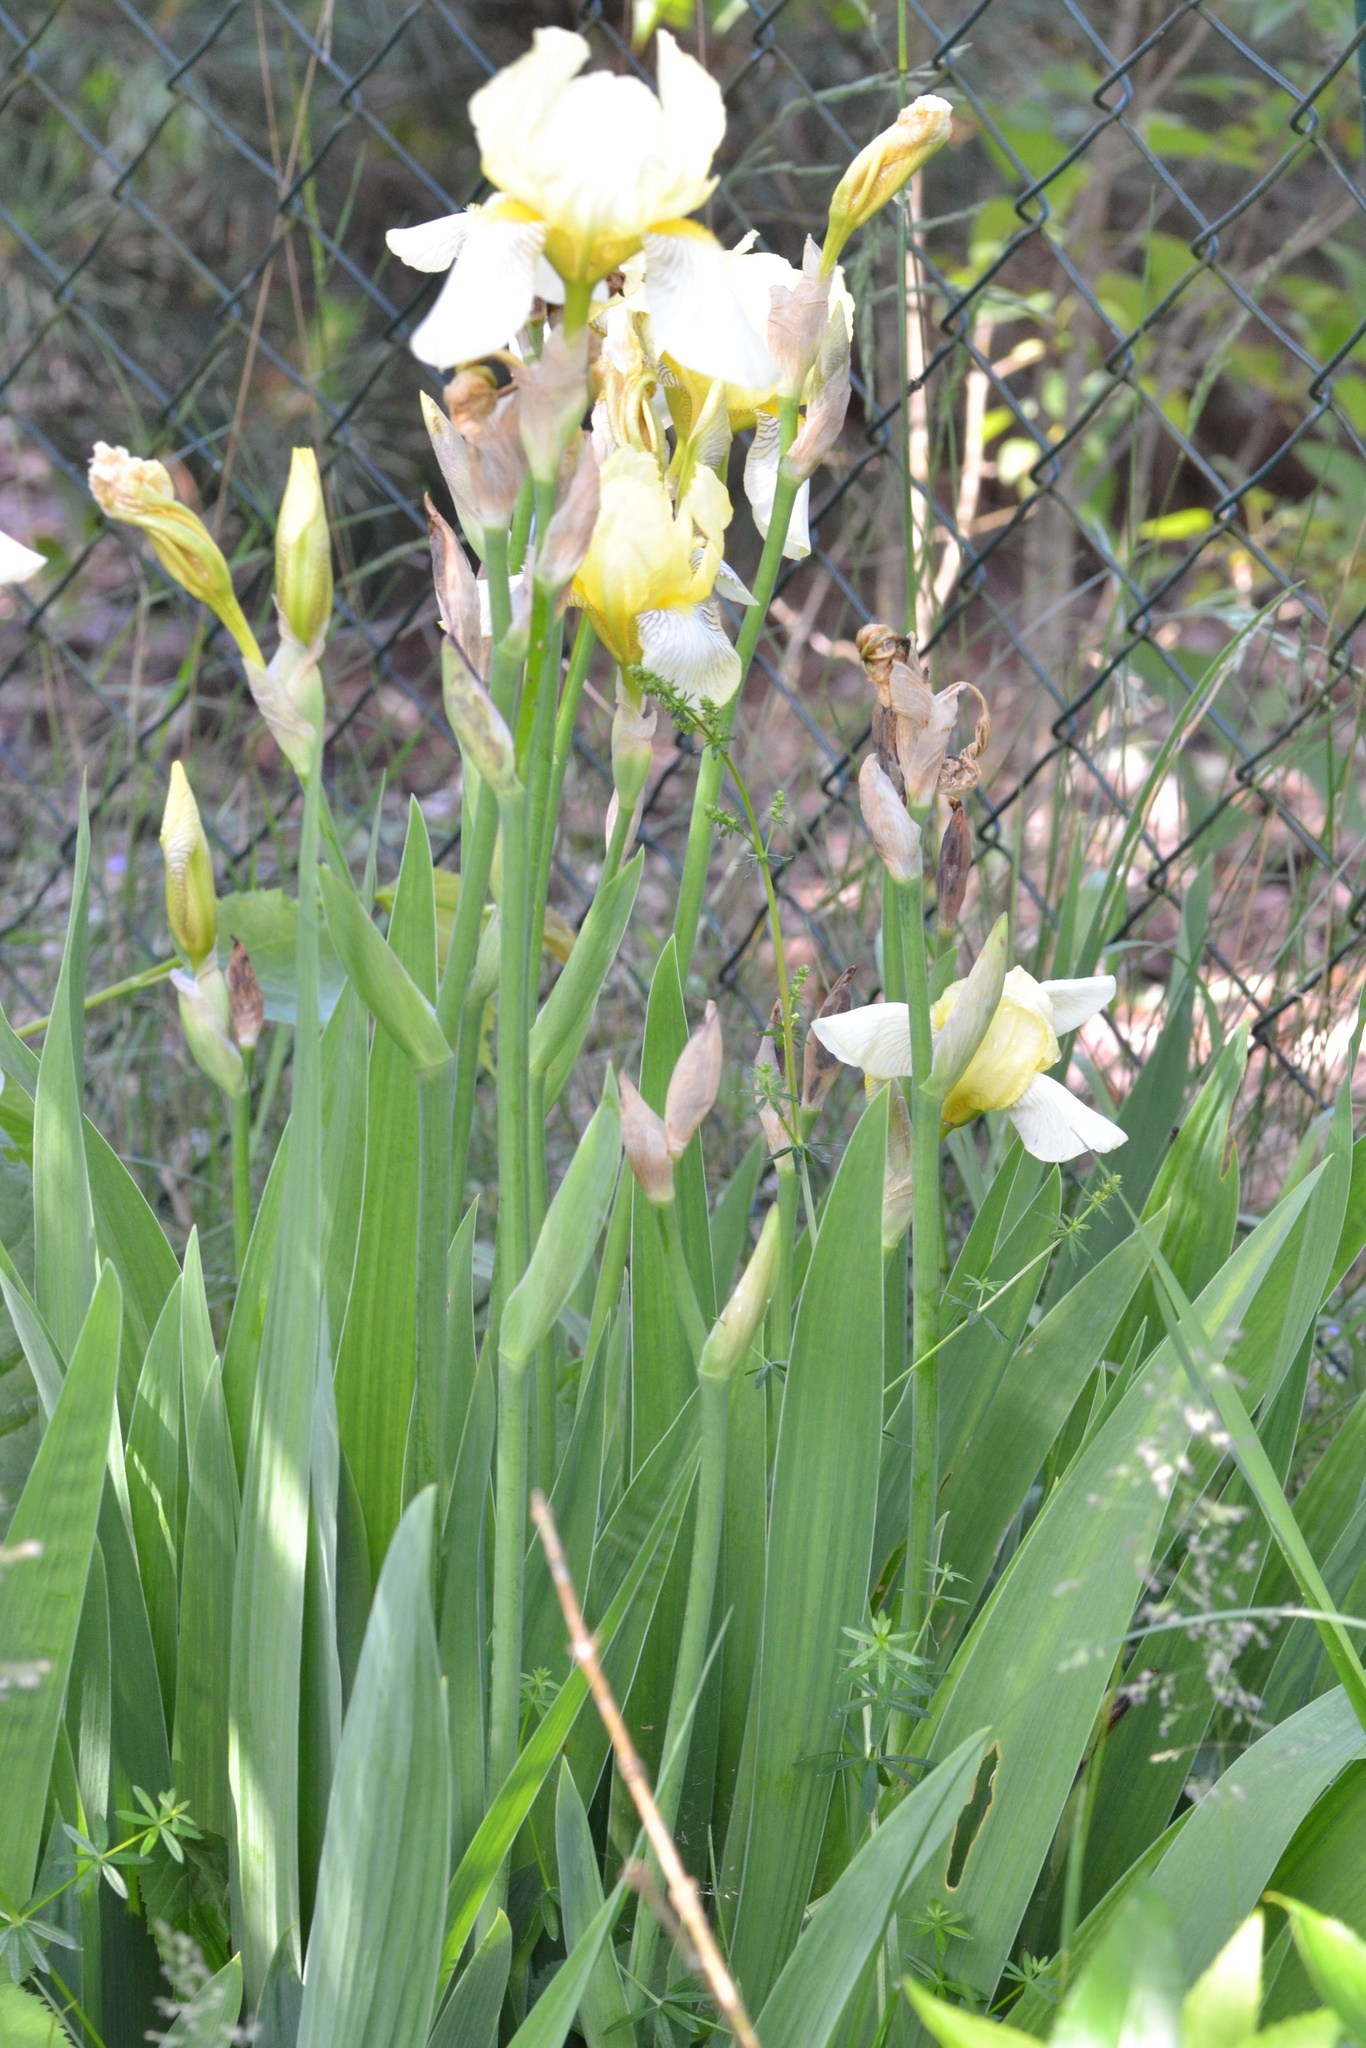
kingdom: Plantae
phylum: Tracheophyta
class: Liliopsida
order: Asparagales
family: Iridaceae
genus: Iris
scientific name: Iris hybrida
